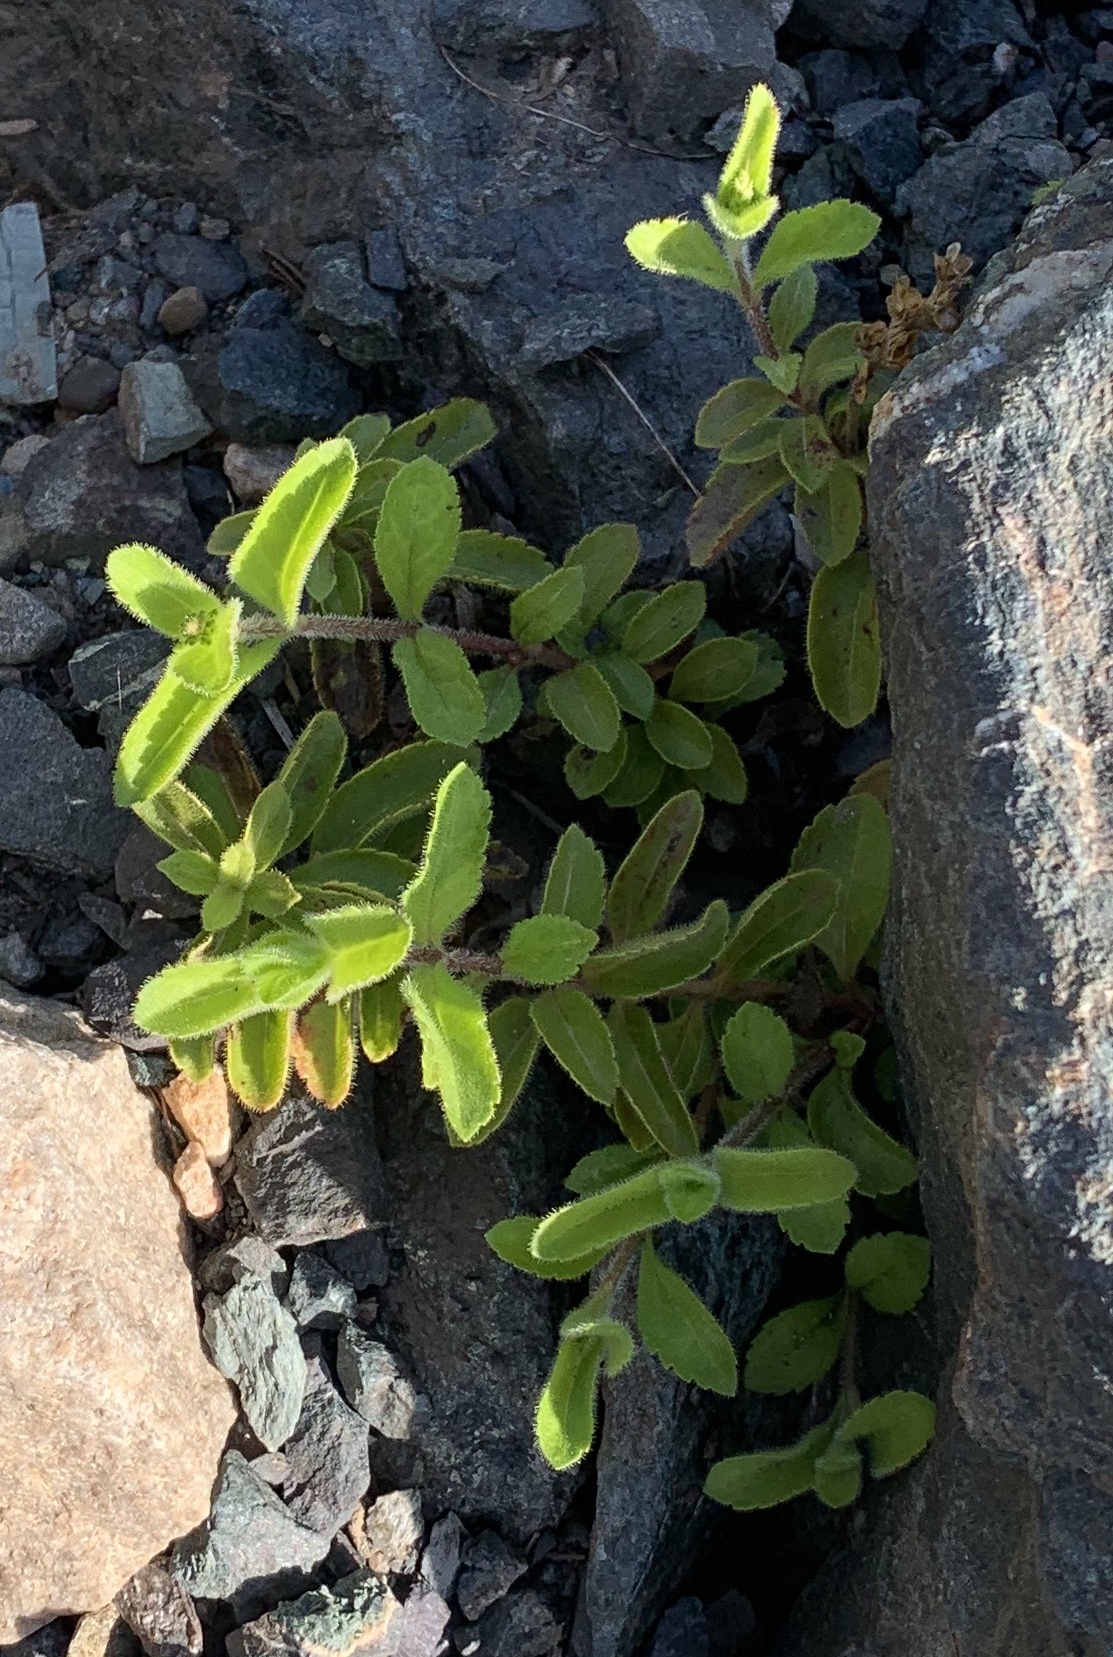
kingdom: Plantae
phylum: Tracheophyta
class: Magnoliopsida
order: Lamiales
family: Plantaginaceae
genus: Veronica
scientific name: Veronica officinalis
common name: Common speedwell
